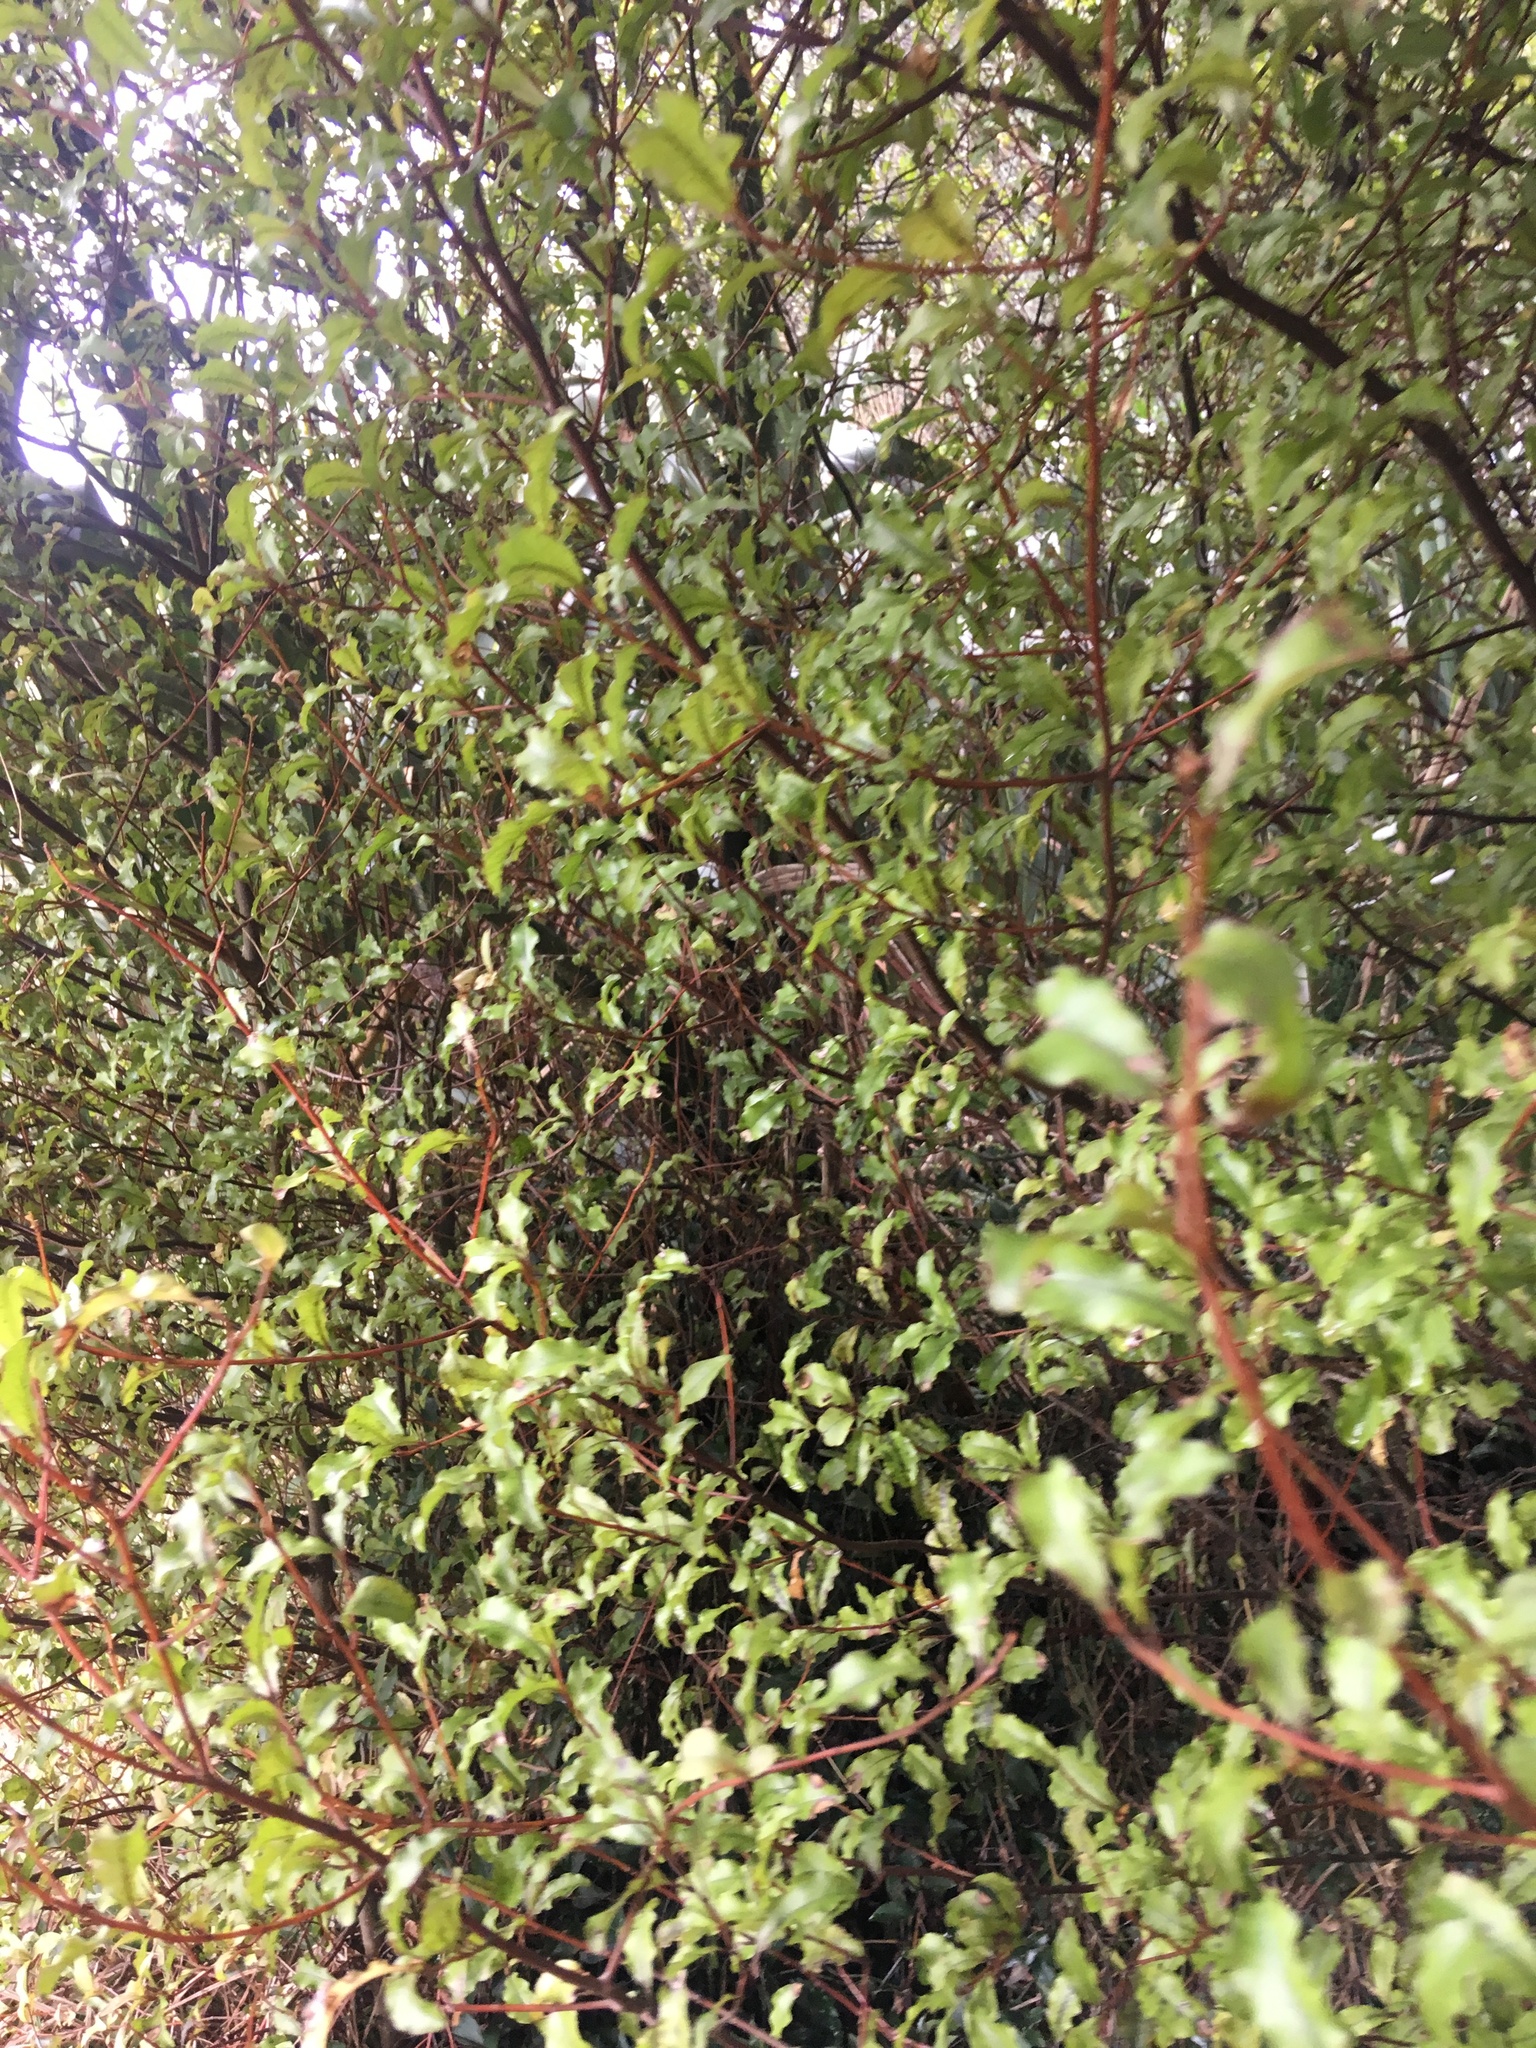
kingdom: Plantae
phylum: Tracheophyta
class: Magnoliopsida
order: Ericales
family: Primulaceae
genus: Myrsine
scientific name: Myrsine australis
